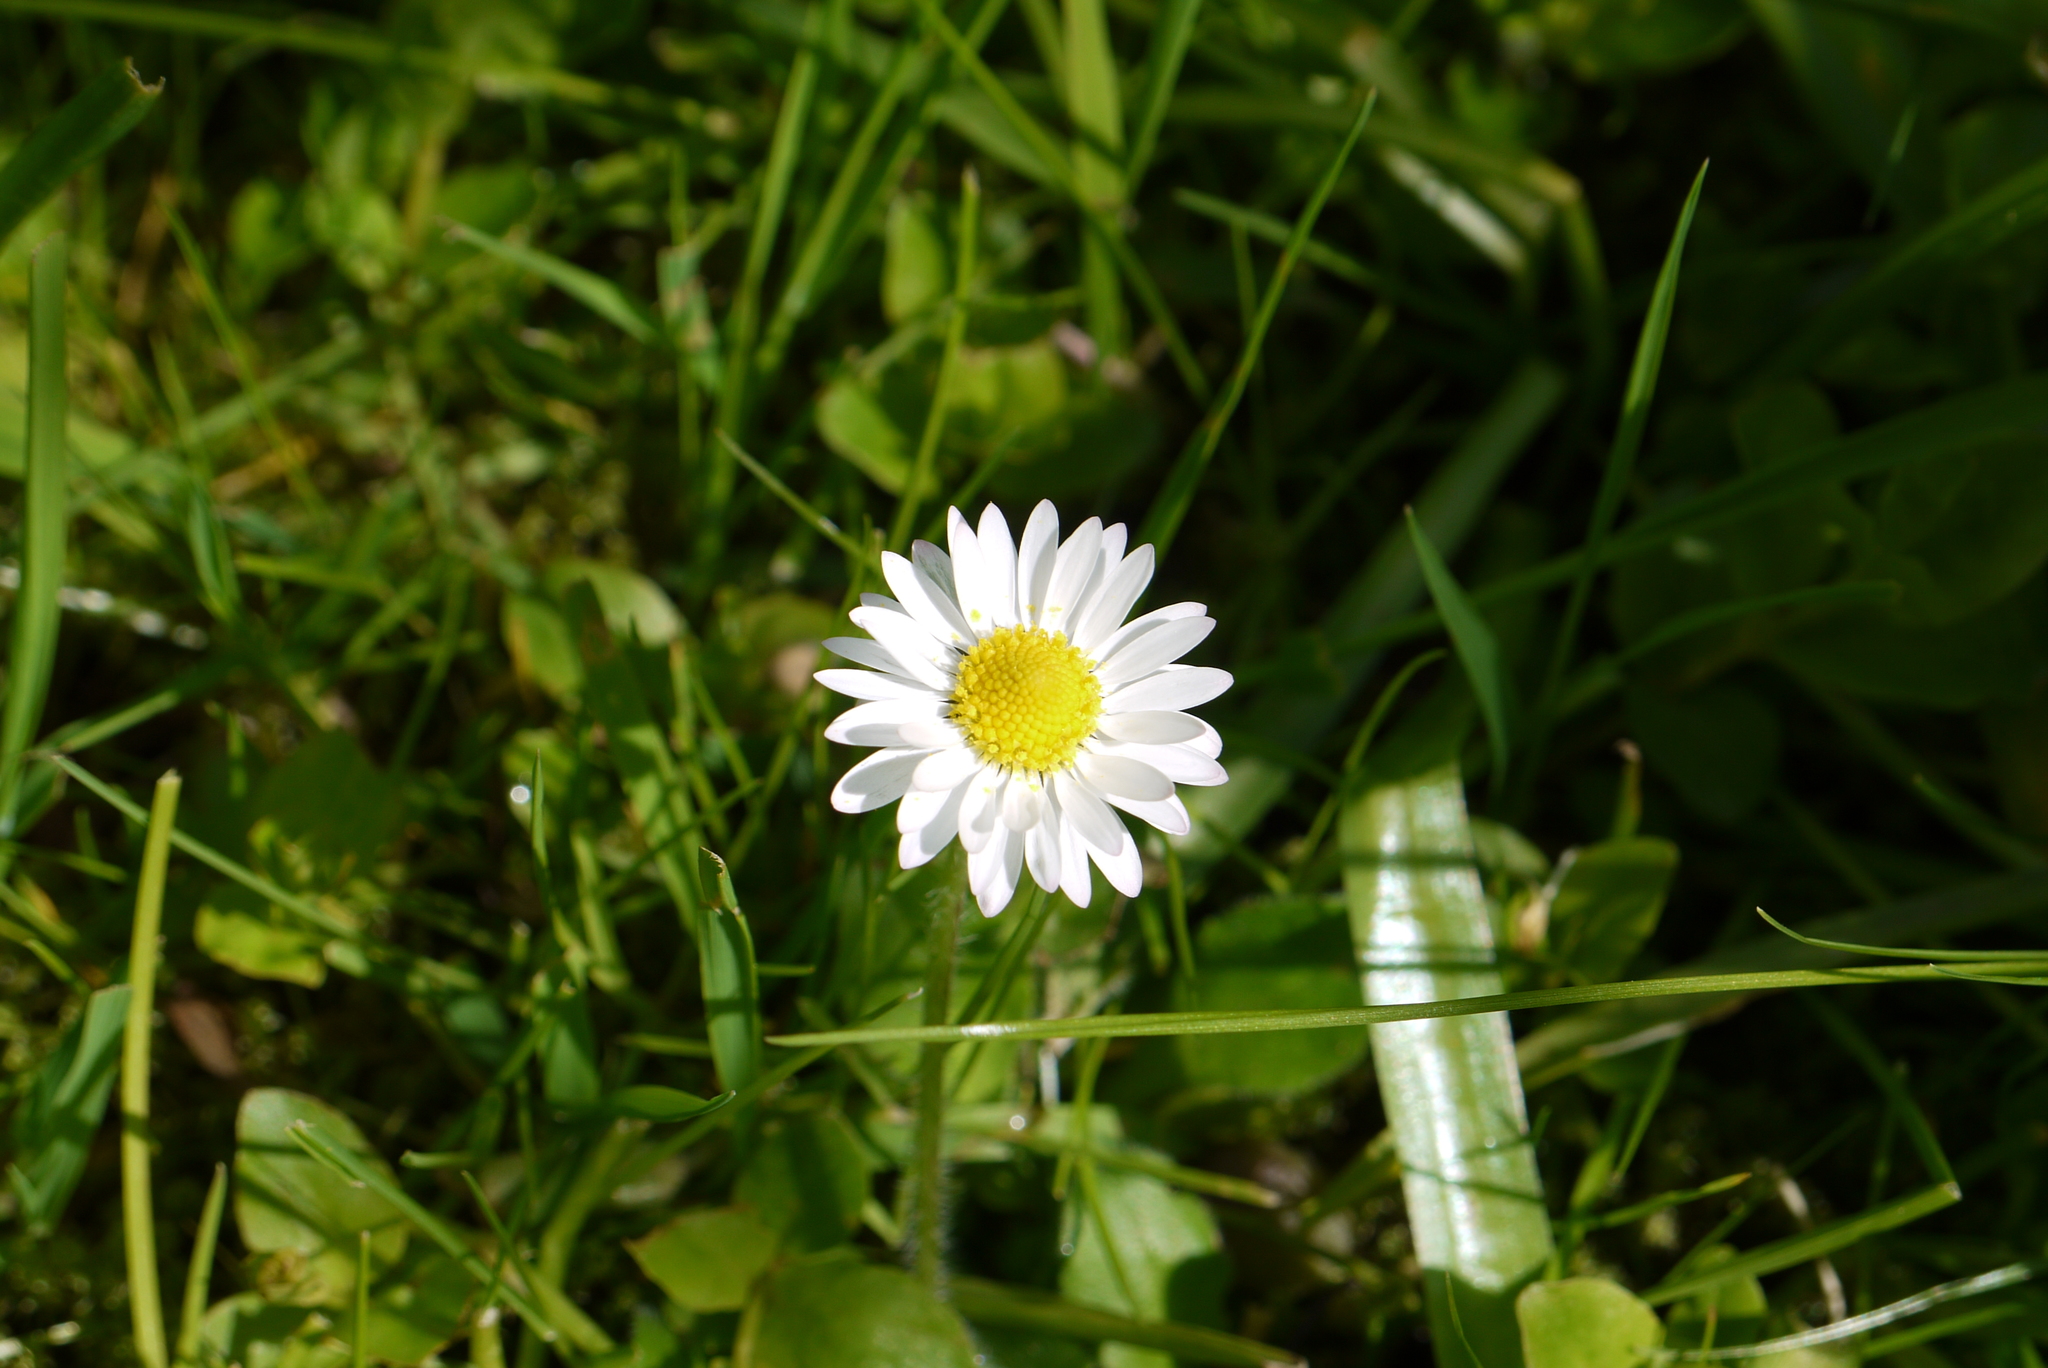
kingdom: Plantae
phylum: Tracheophyta
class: Magnoliopsida
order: Asterales
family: Asteraceae
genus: Bellis
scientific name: Bellis perennis
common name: Lawndaisy
